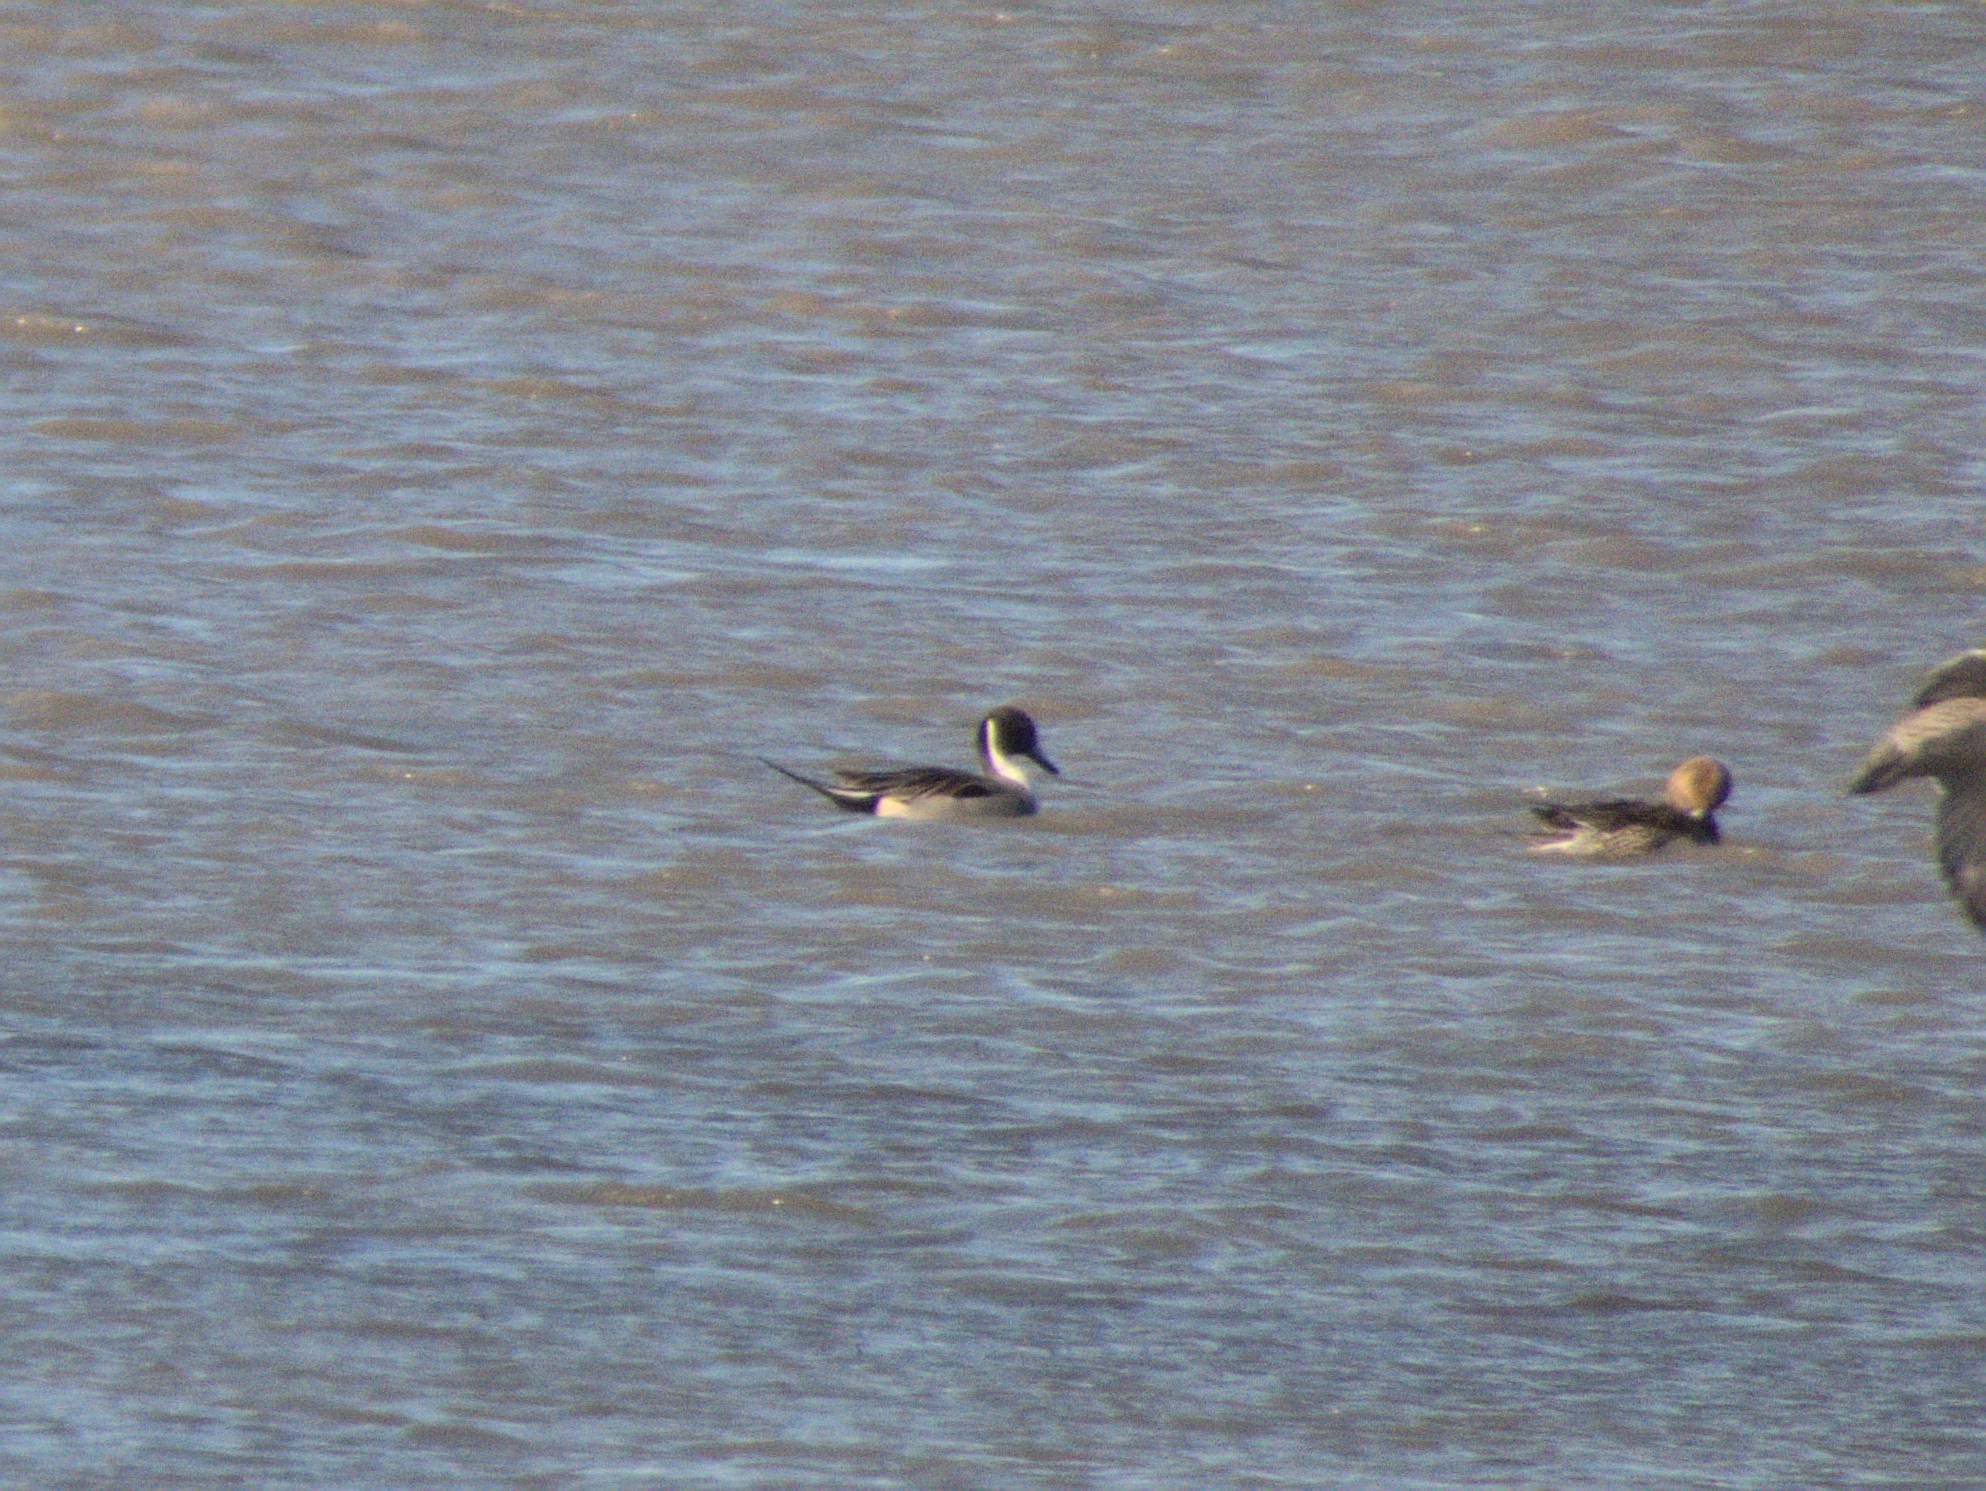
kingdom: Animalia
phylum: Chordata
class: Aves
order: Anseriformes
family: Anatidae
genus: Anas
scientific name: Anas acuta
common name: Northern pintail
